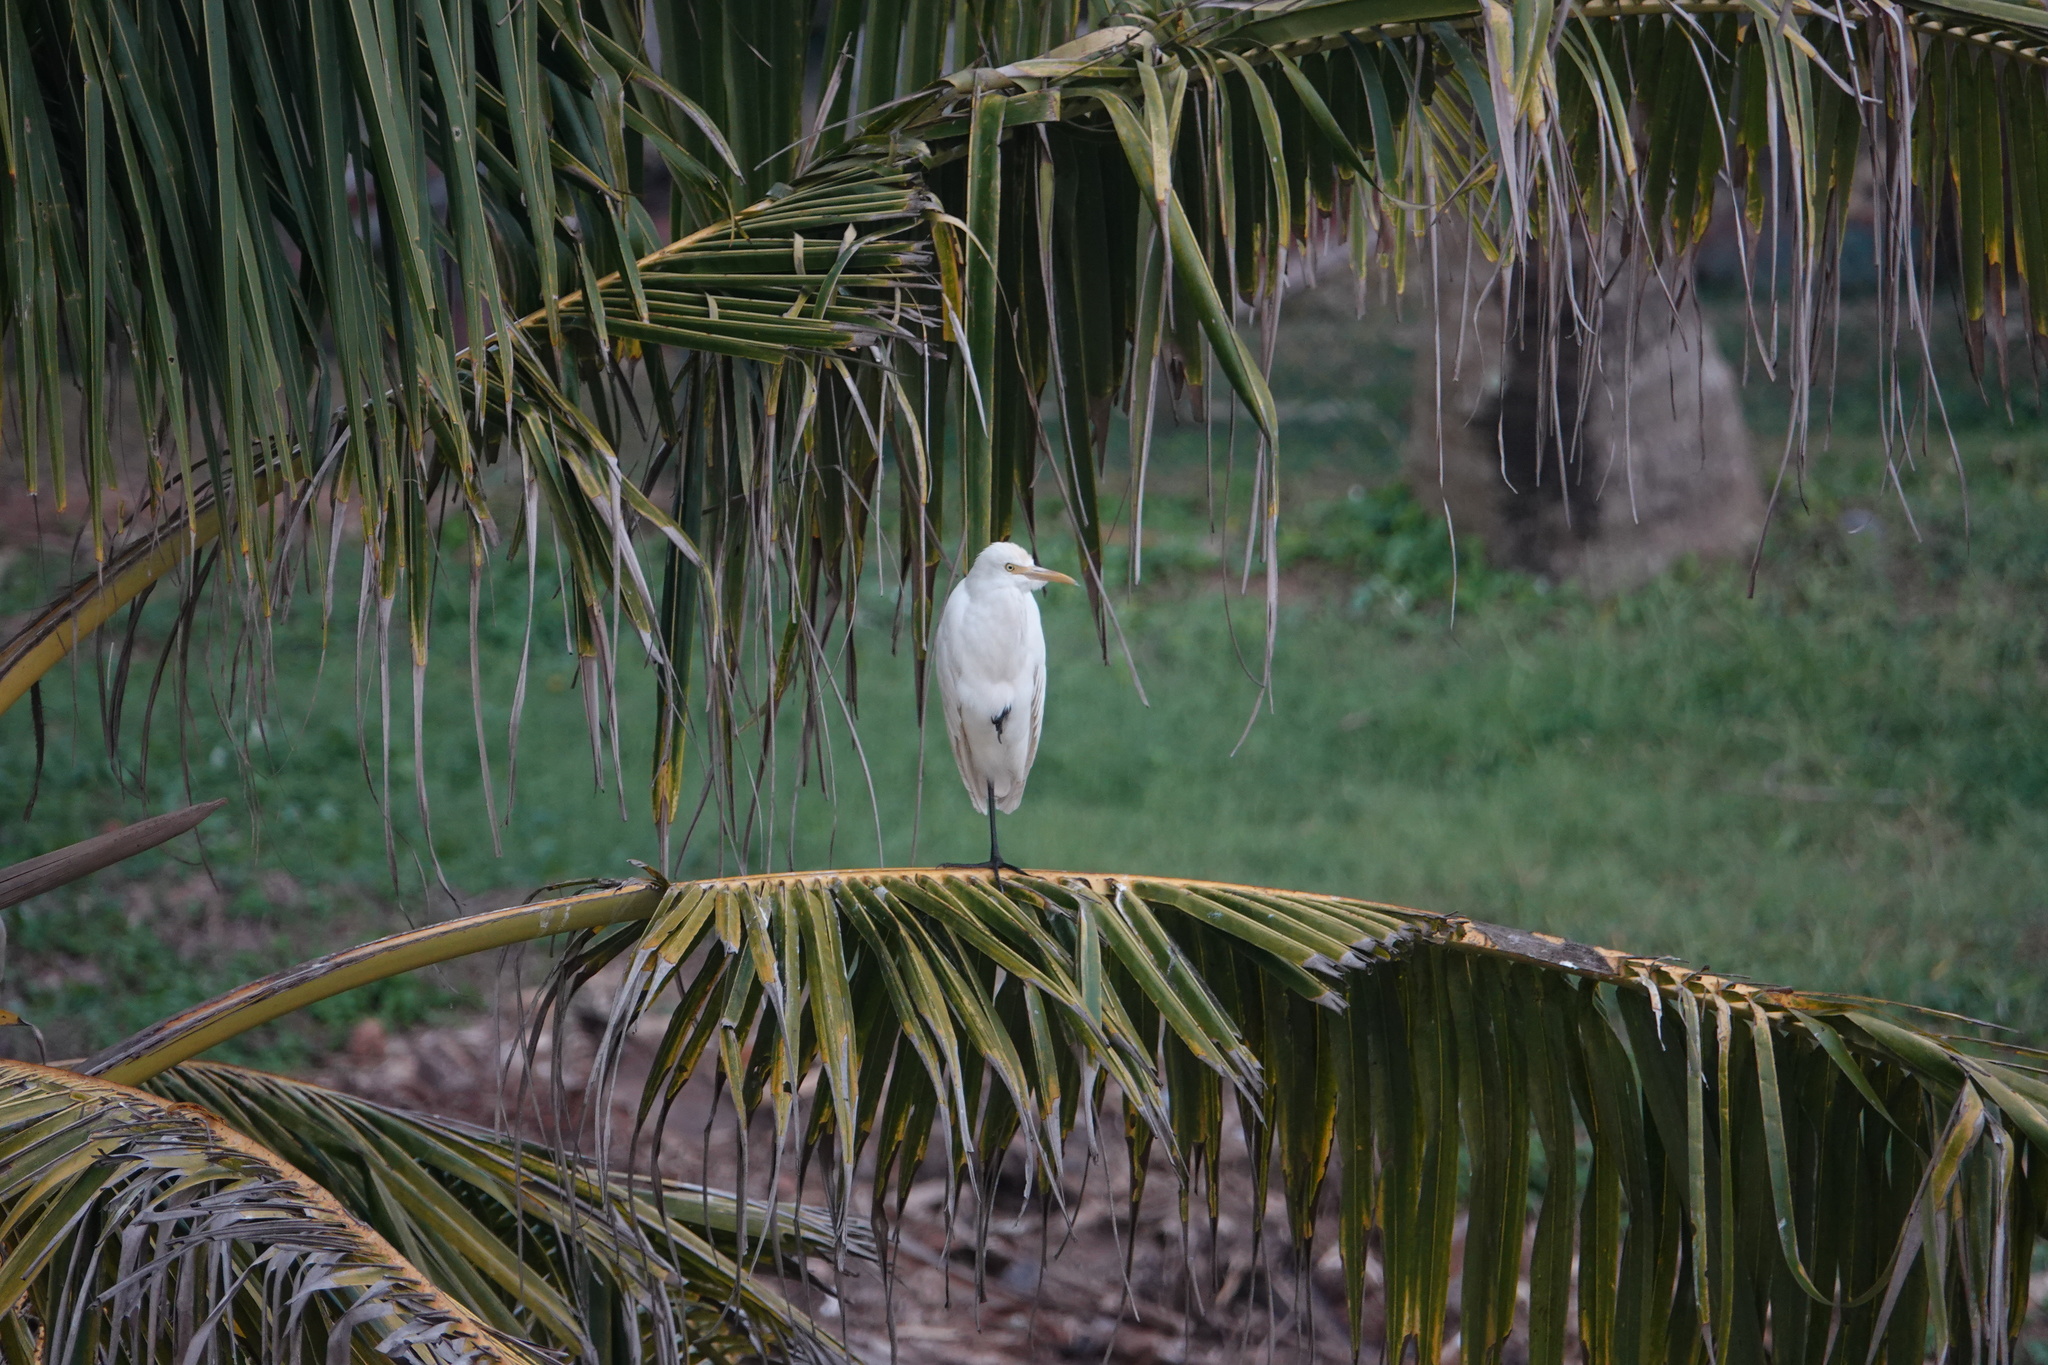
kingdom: Animalia
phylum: Chordata
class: Aves
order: Pelecaniformes
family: Ardeidae
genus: Bubulcus
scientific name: Bubulcus coromandus
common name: Eastern cattle egret
